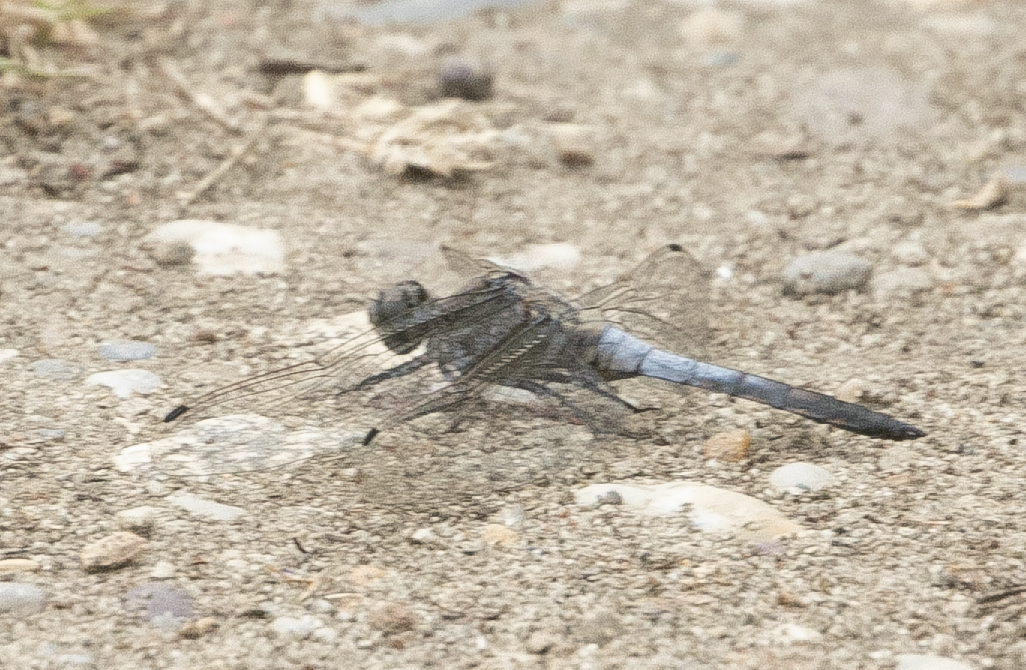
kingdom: Animalia
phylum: Arthropoda
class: Insecta
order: Odonata
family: Libellulidae
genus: Orthetrum
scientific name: Orthetrum cancellatum
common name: Black-tailed skimmer
